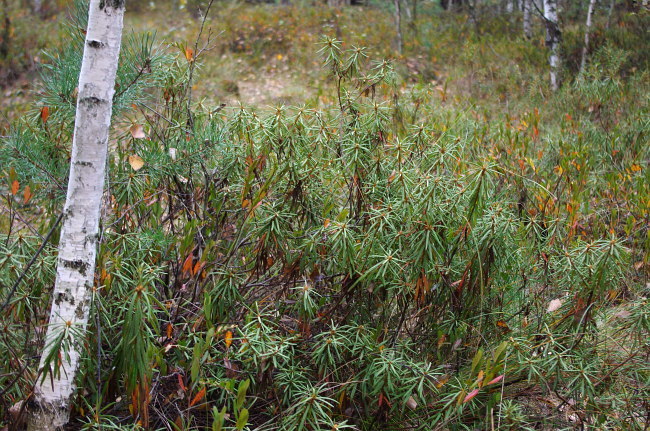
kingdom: Plantae
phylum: Tracheophyta
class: Magnoliopsida
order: Ericales
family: Ericaceae
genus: Rhododendron
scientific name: Rhododendron tomentosum
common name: Marsh labrador tea
